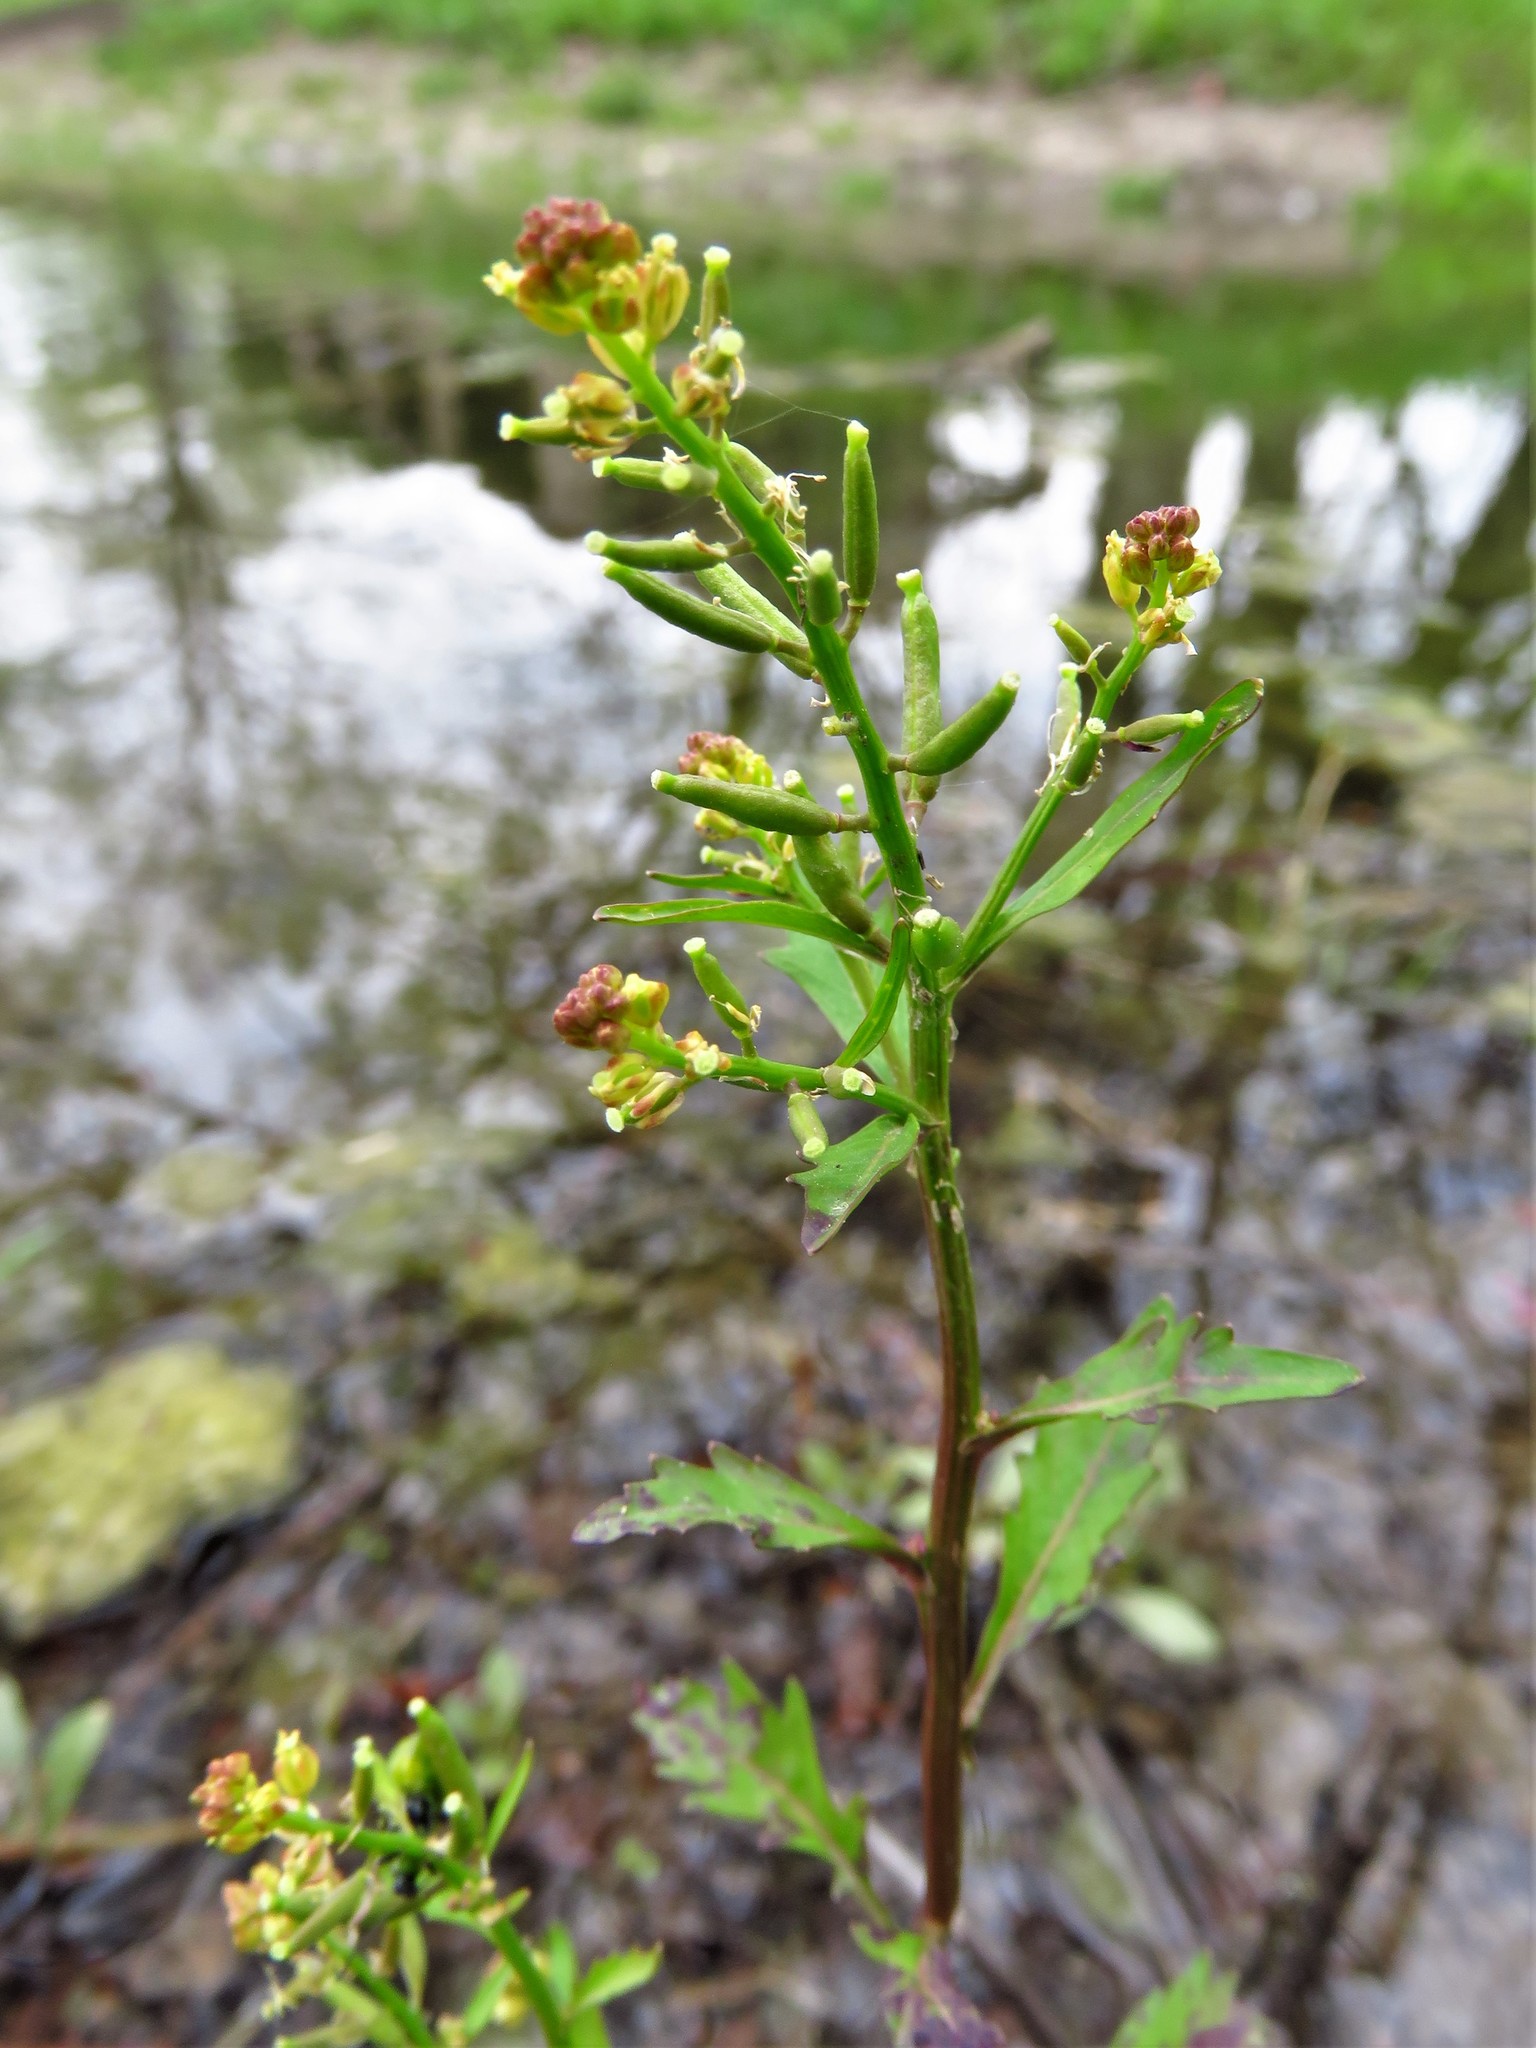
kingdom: Plantae
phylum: Tracheophyta
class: Magnoliopsida
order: Brassicales
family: Brassicaceae
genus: Rorippa
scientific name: Rorippa teres
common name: Southern marsh yellowcress
